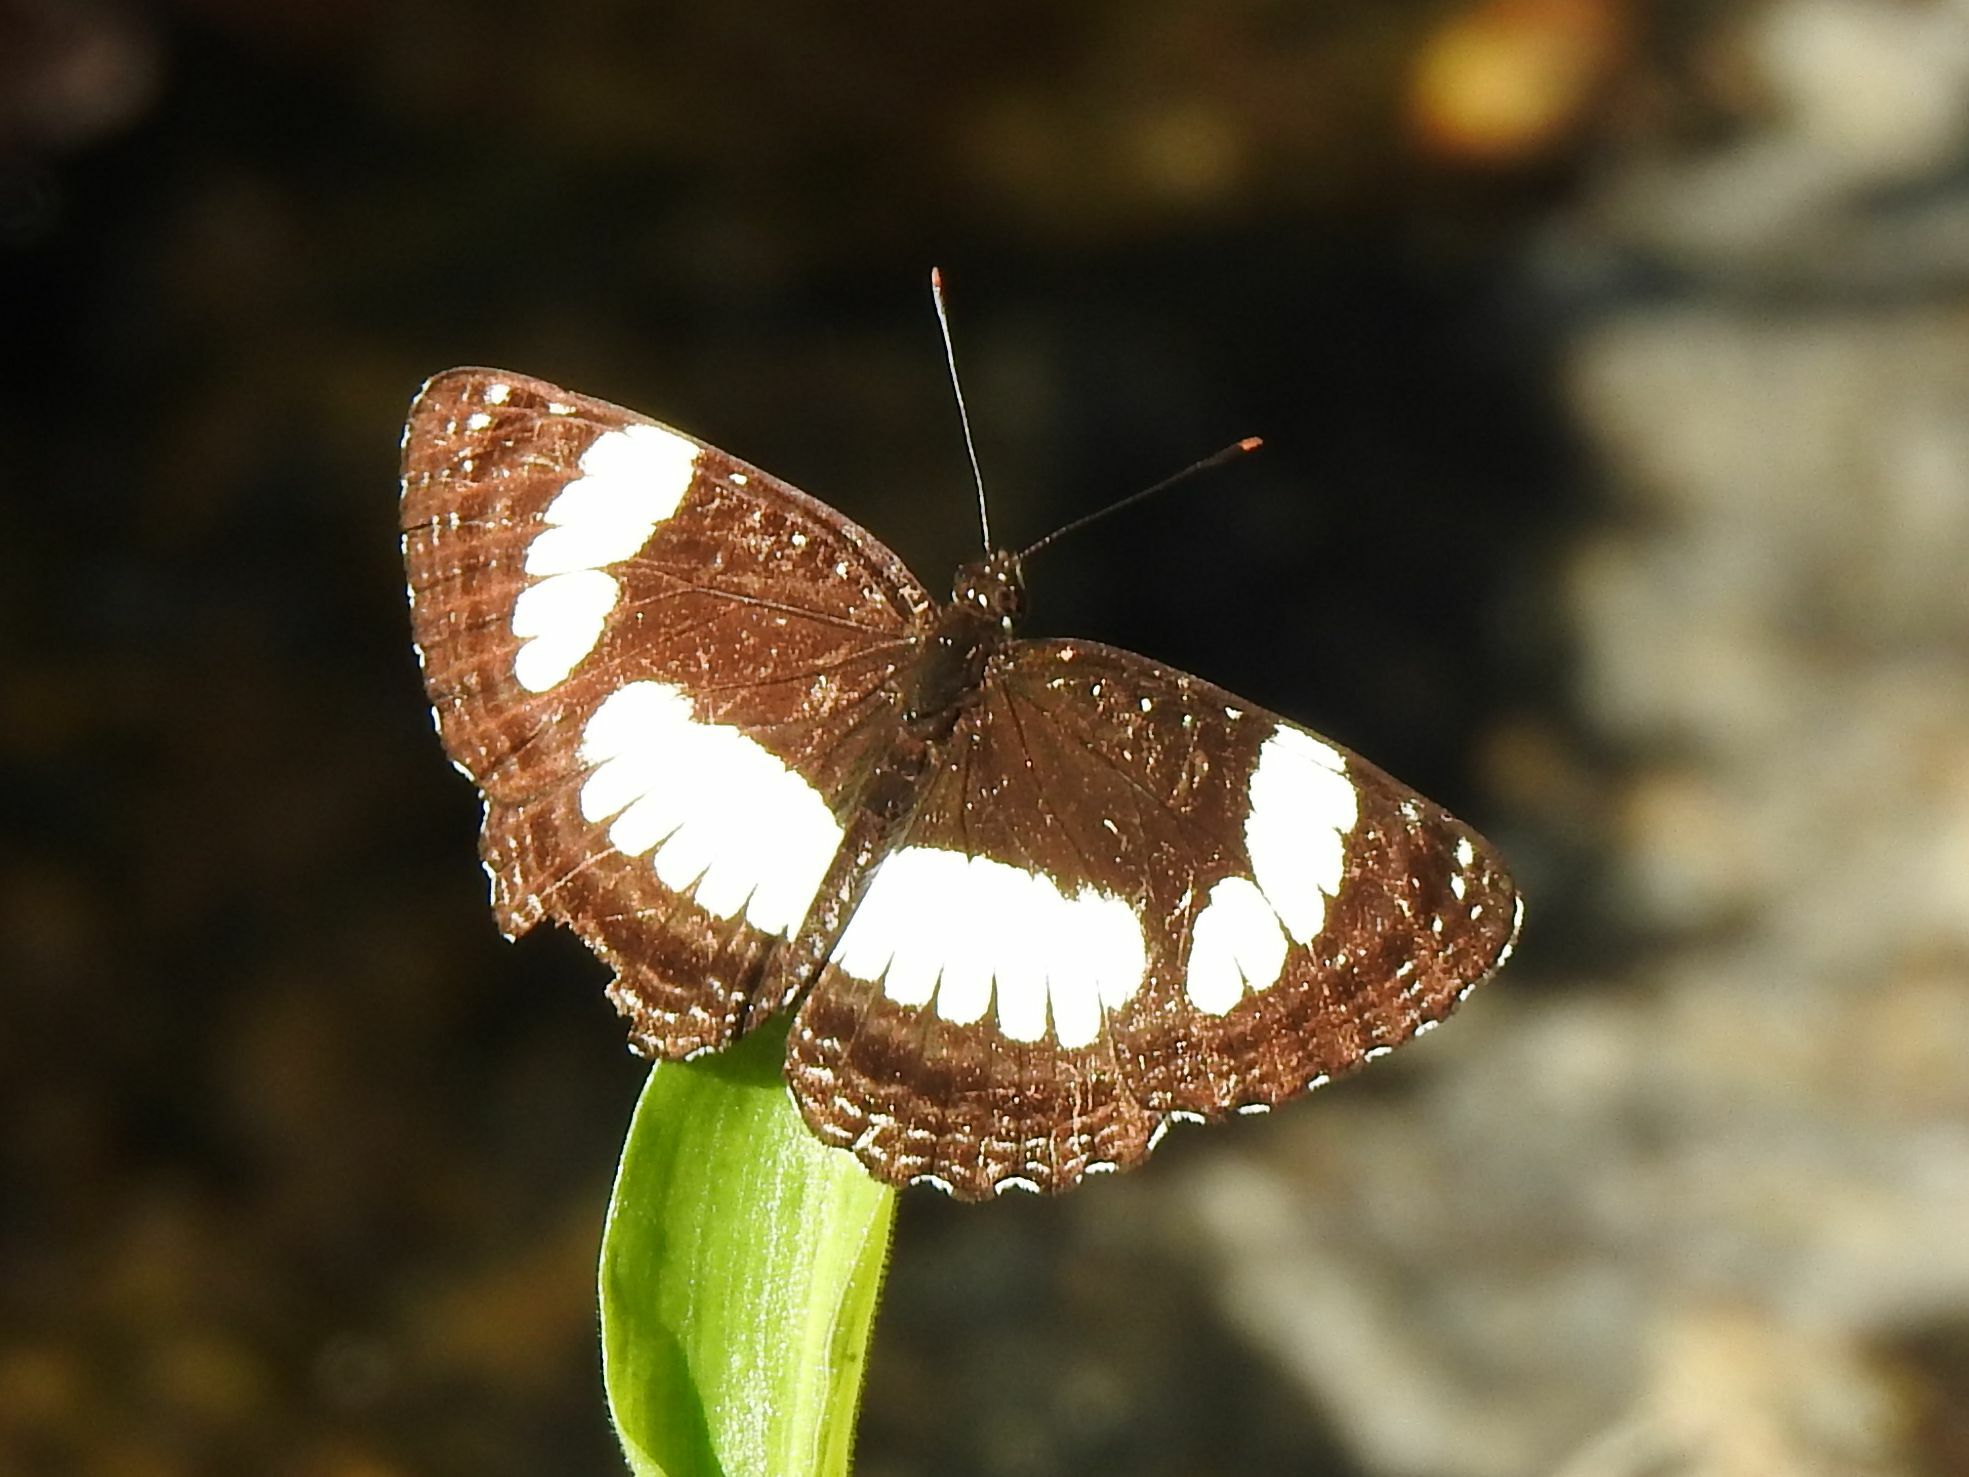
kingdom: Animalia
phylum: Arthropoda
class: Insecta
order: Lepidoptera
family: Nymphalidae
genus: Neptis
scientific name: Neptis laeta
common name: Common barred sailor
